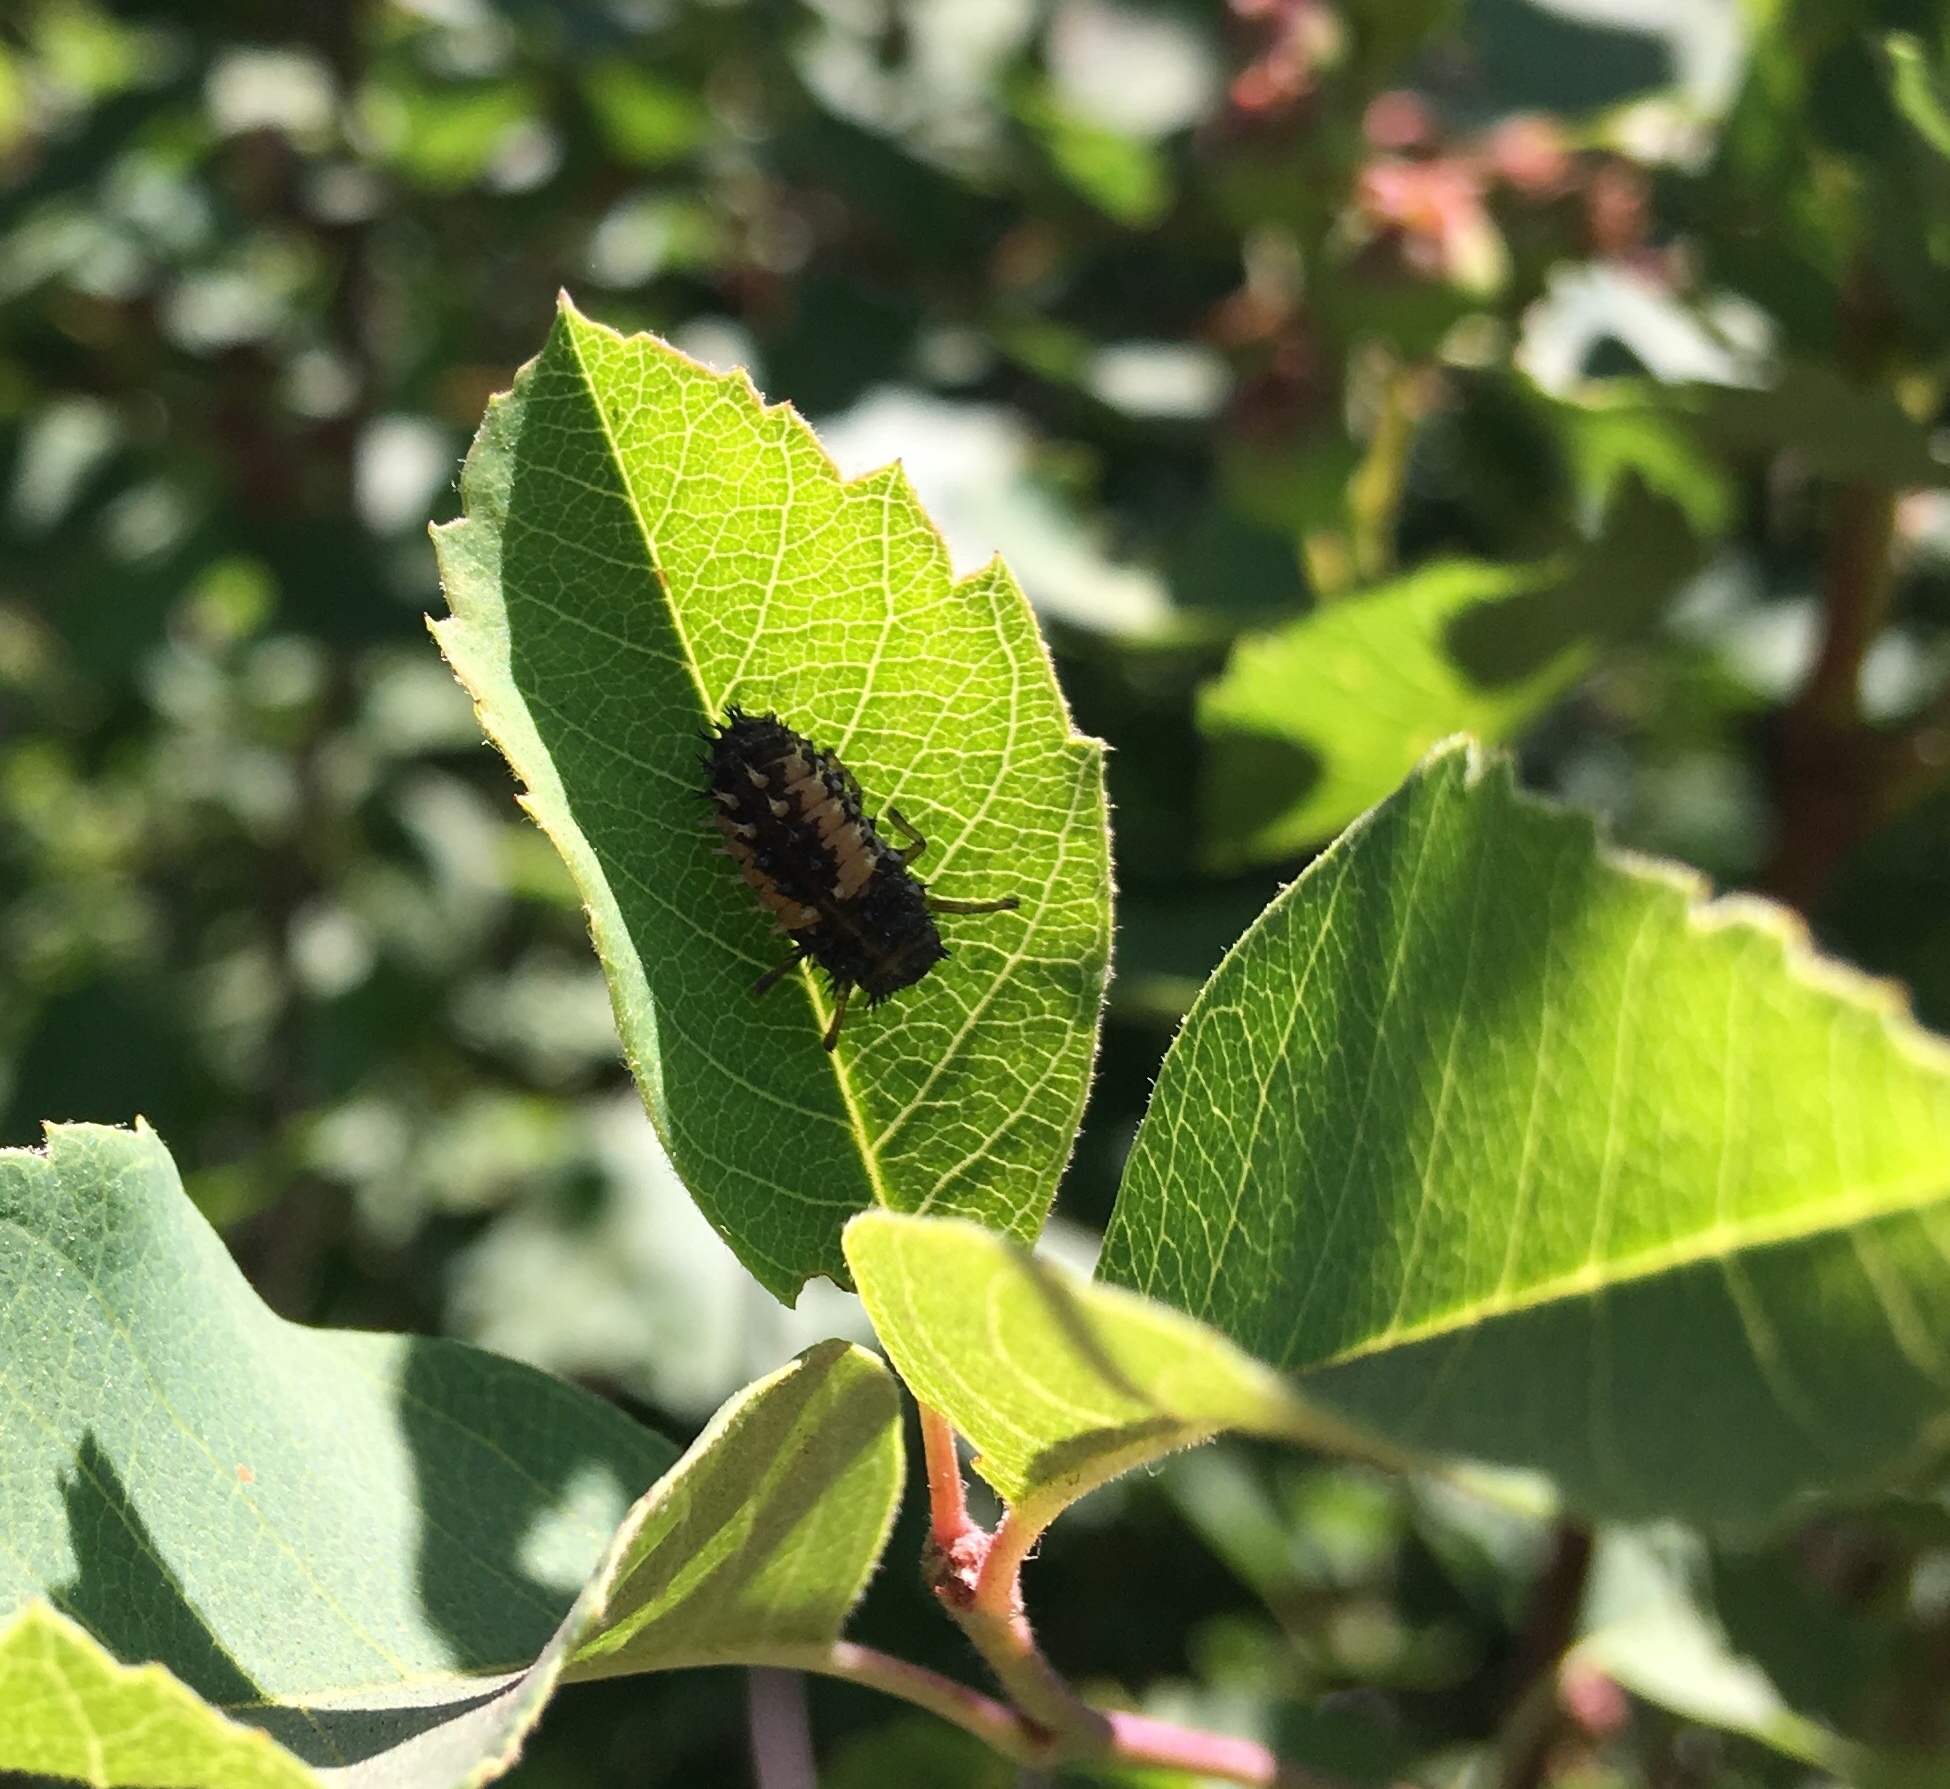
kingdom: Animalia
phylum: Arthropoda
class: Insecta
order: Coleoptera
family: Coccinellidae
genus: Harmonia
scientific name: Harmonia axyridis
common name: Harlequin ladybird
